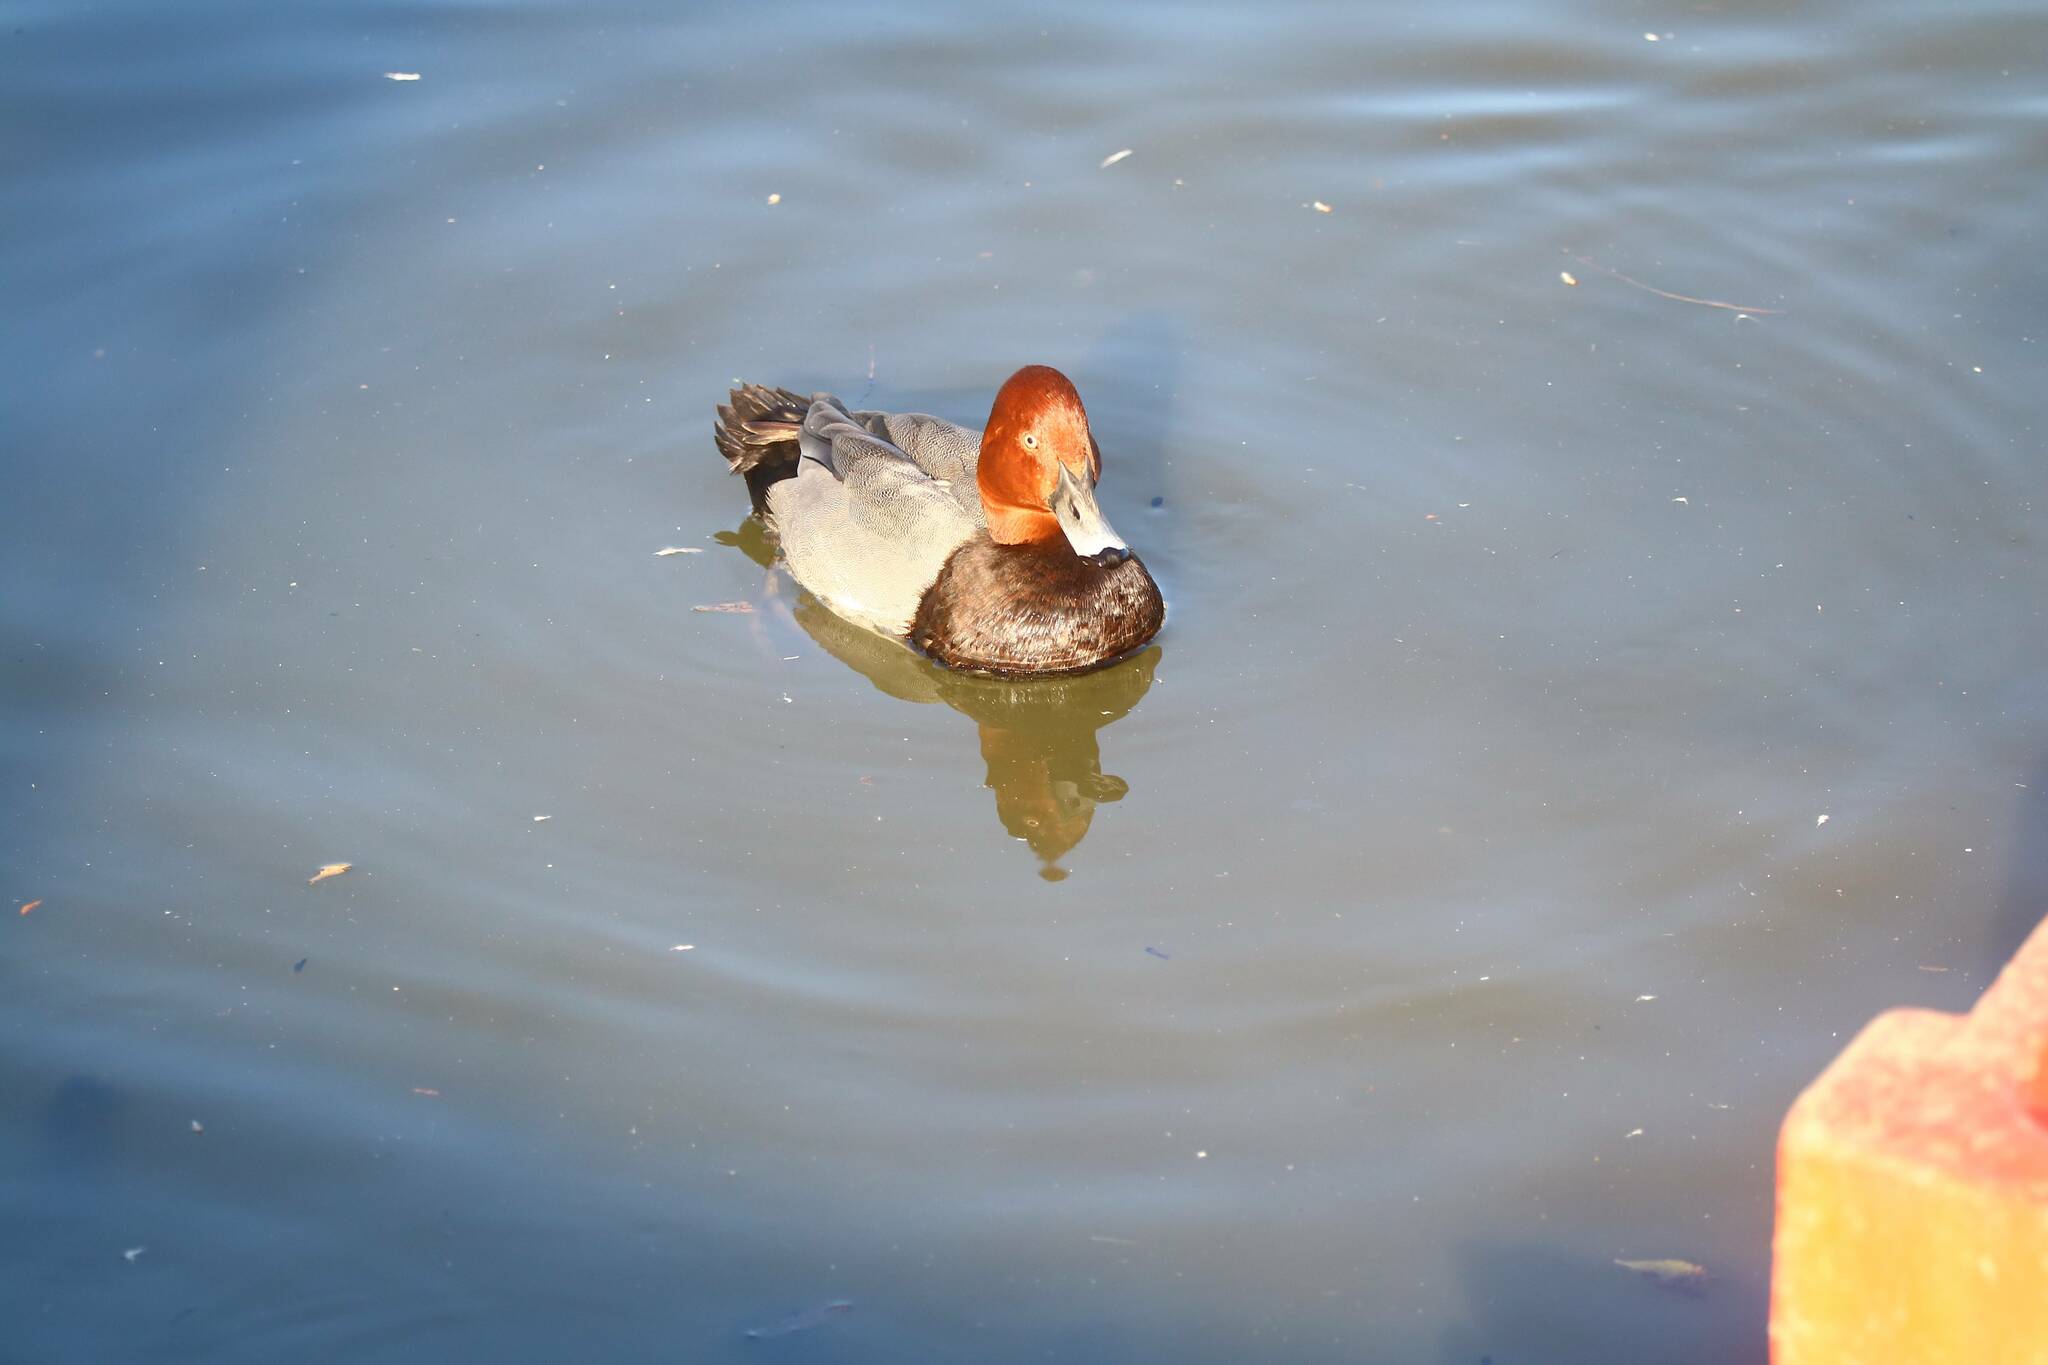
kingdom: Animalia
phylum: Chordata
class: Aves
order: Anseriformes
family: Anatidae
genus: Aythya
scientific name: Aythya ferina
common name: Common pochard
